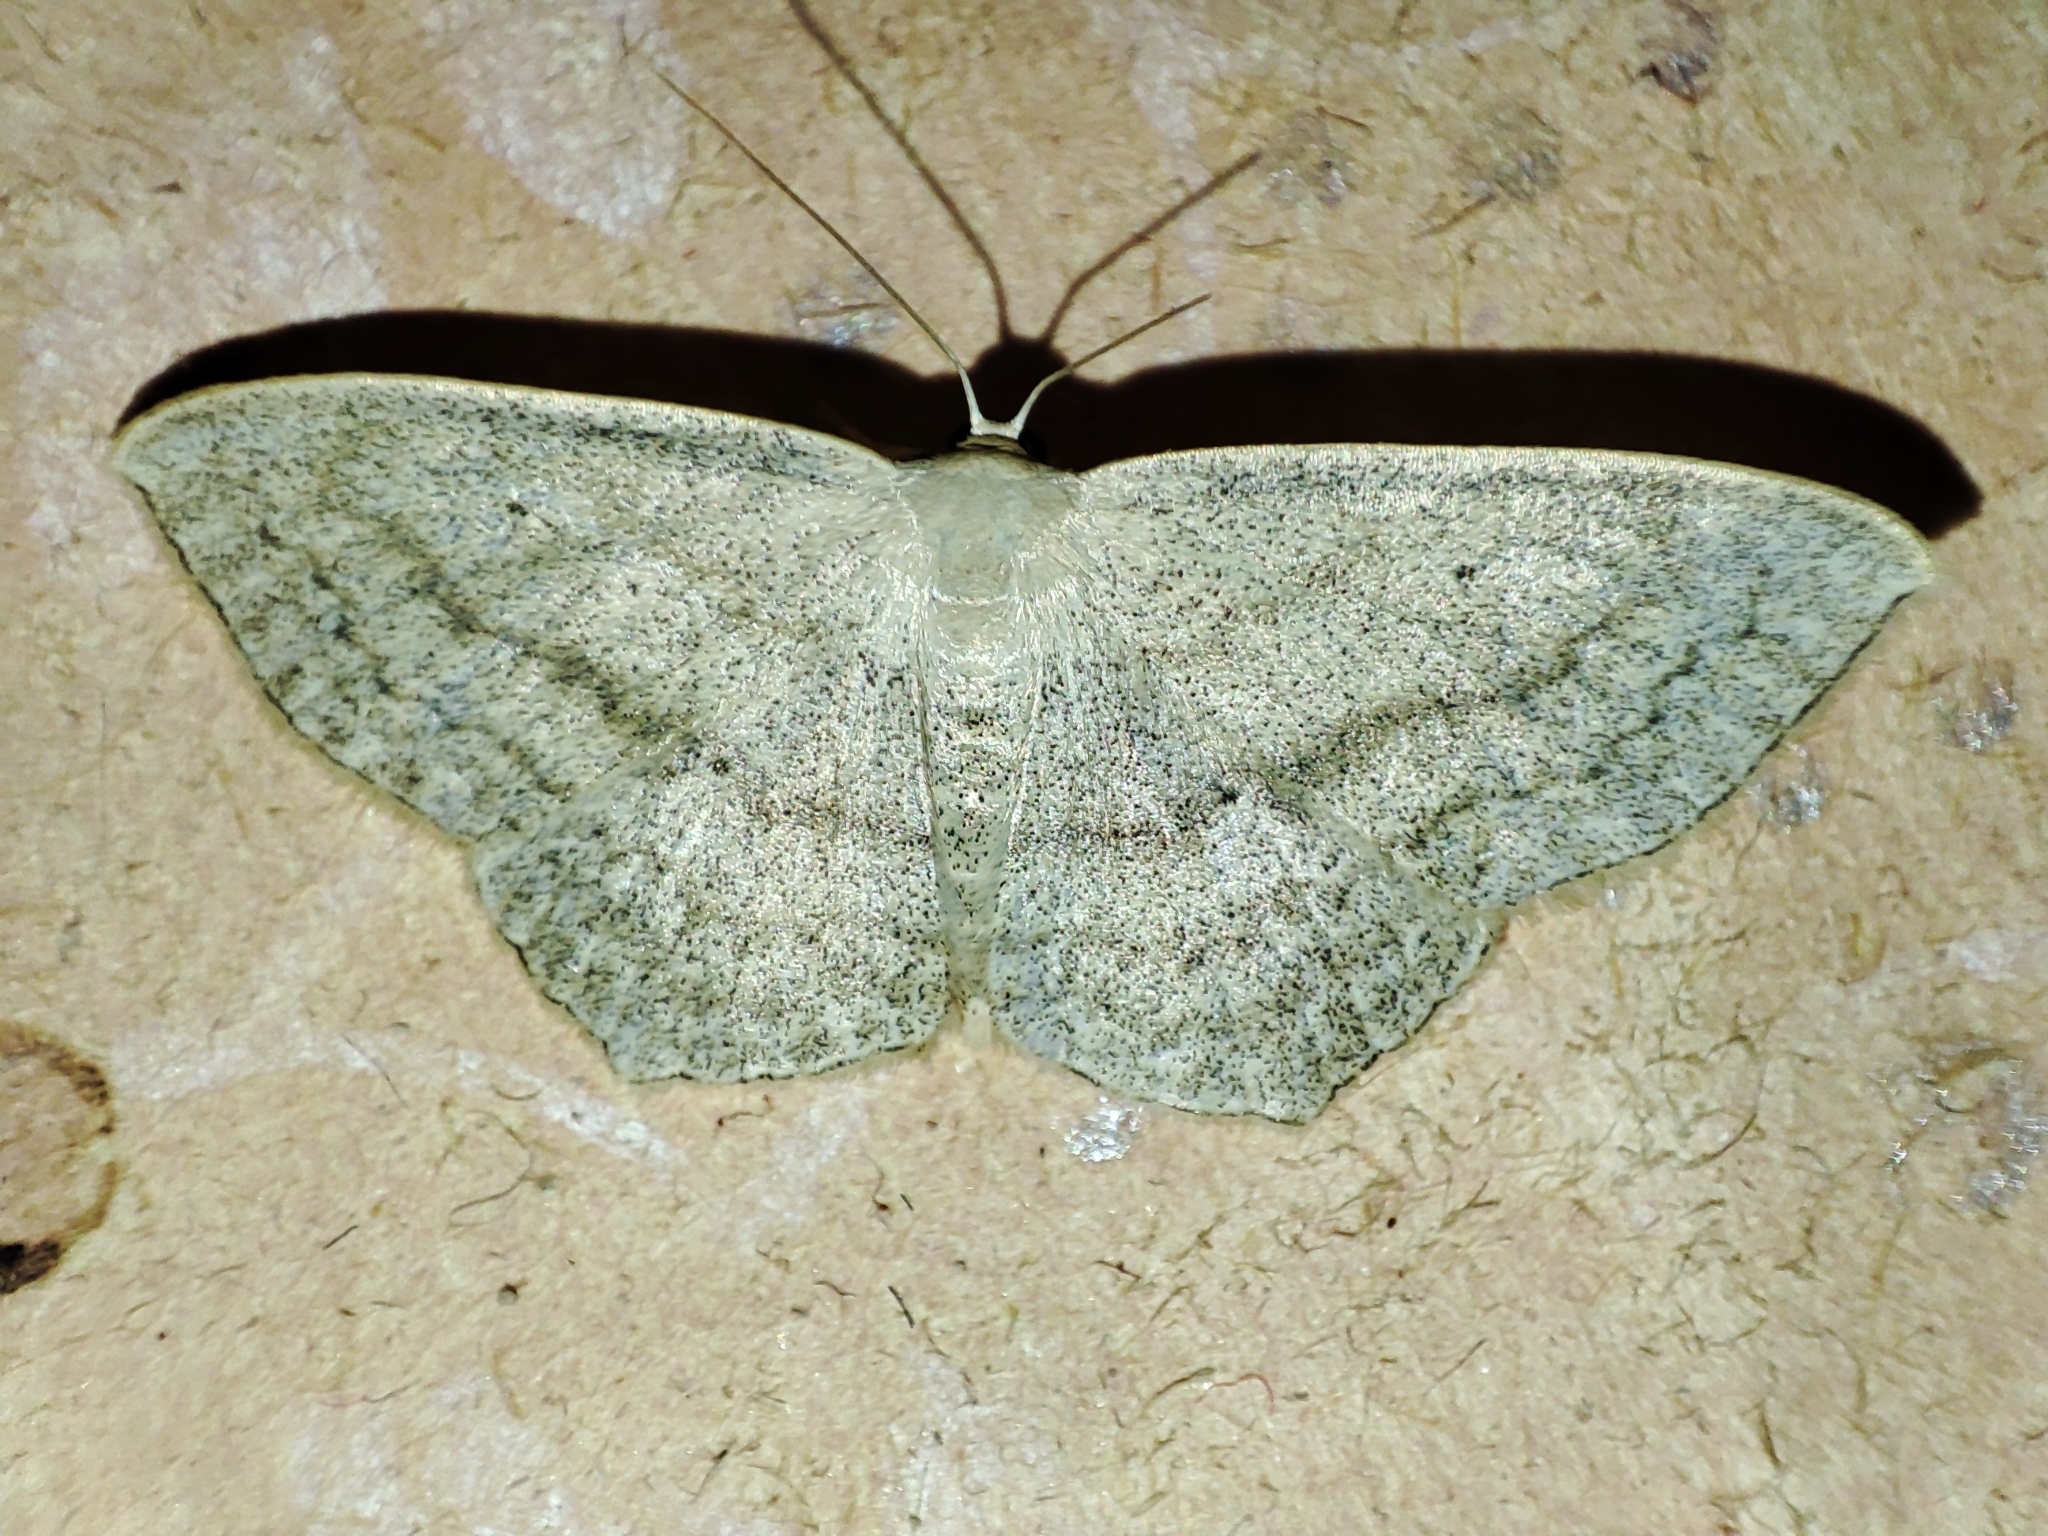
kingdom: Animalia
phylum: Arthropoda
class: Insecta
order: Lepidoptera
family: Geometridae
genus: Scopula
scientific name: Scopula nigropunctata
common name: Sub-angled wave
